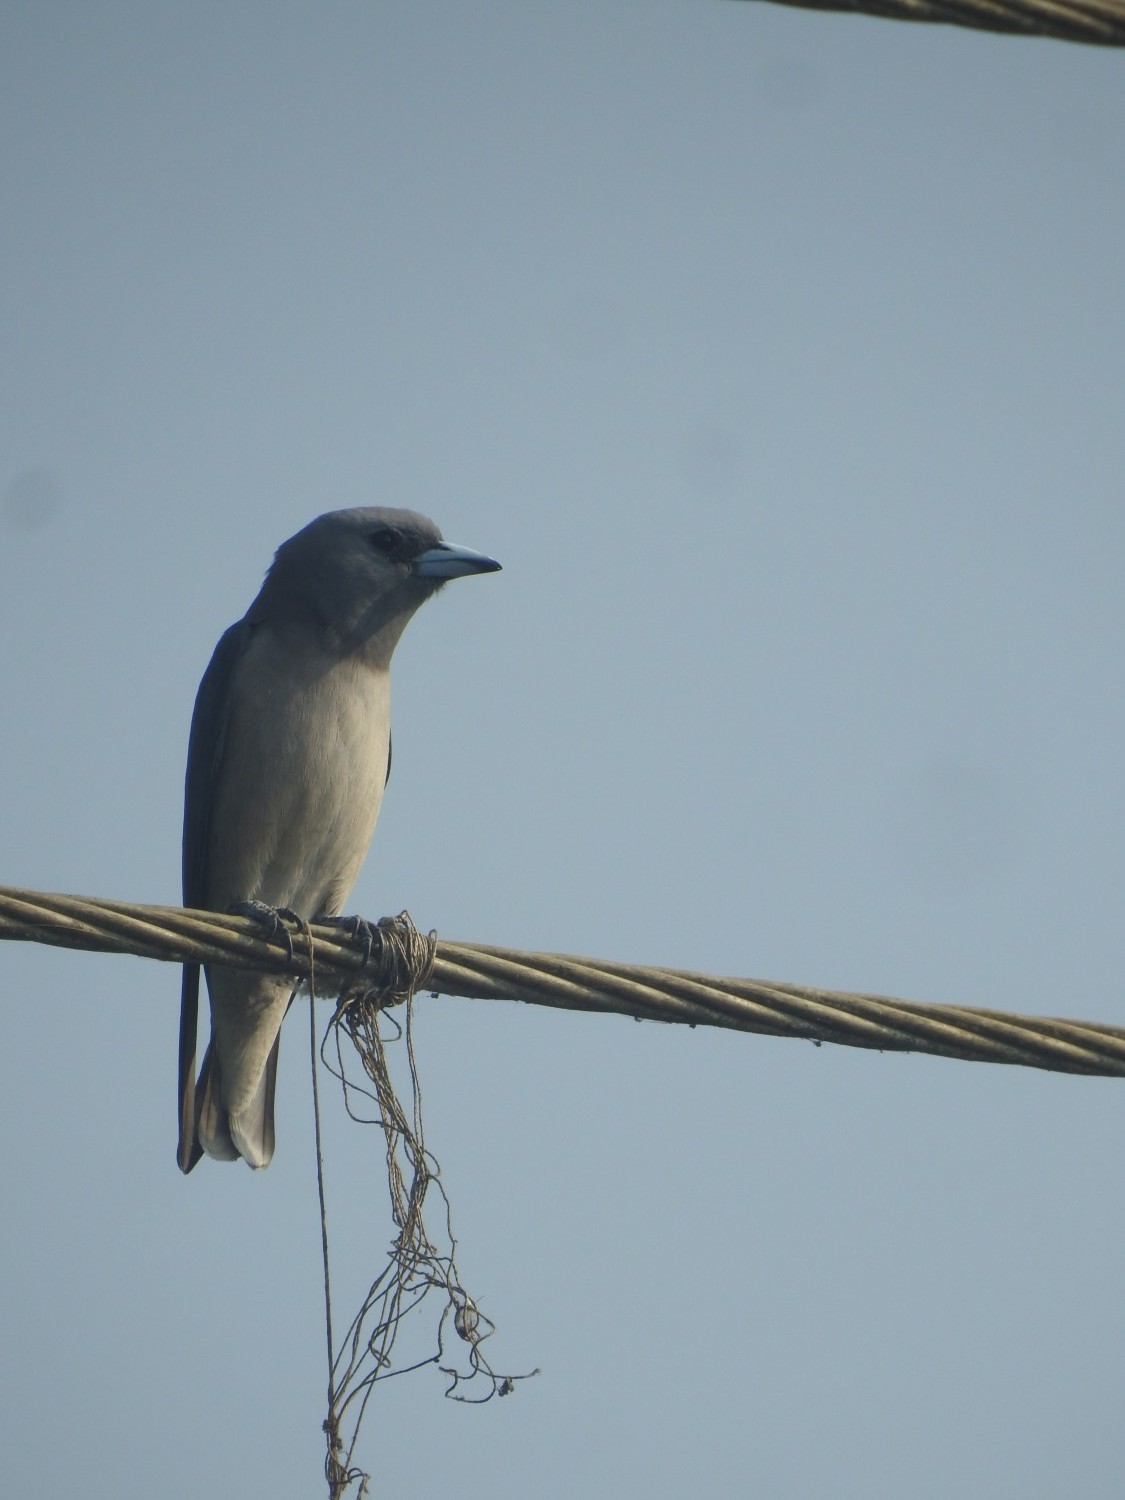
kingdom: Animalia
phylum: Chordata
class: Aves
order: Passeriformes
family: Artamidae
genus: Artamus
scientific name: Artamus fuscus
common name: Ashy woodswallow
